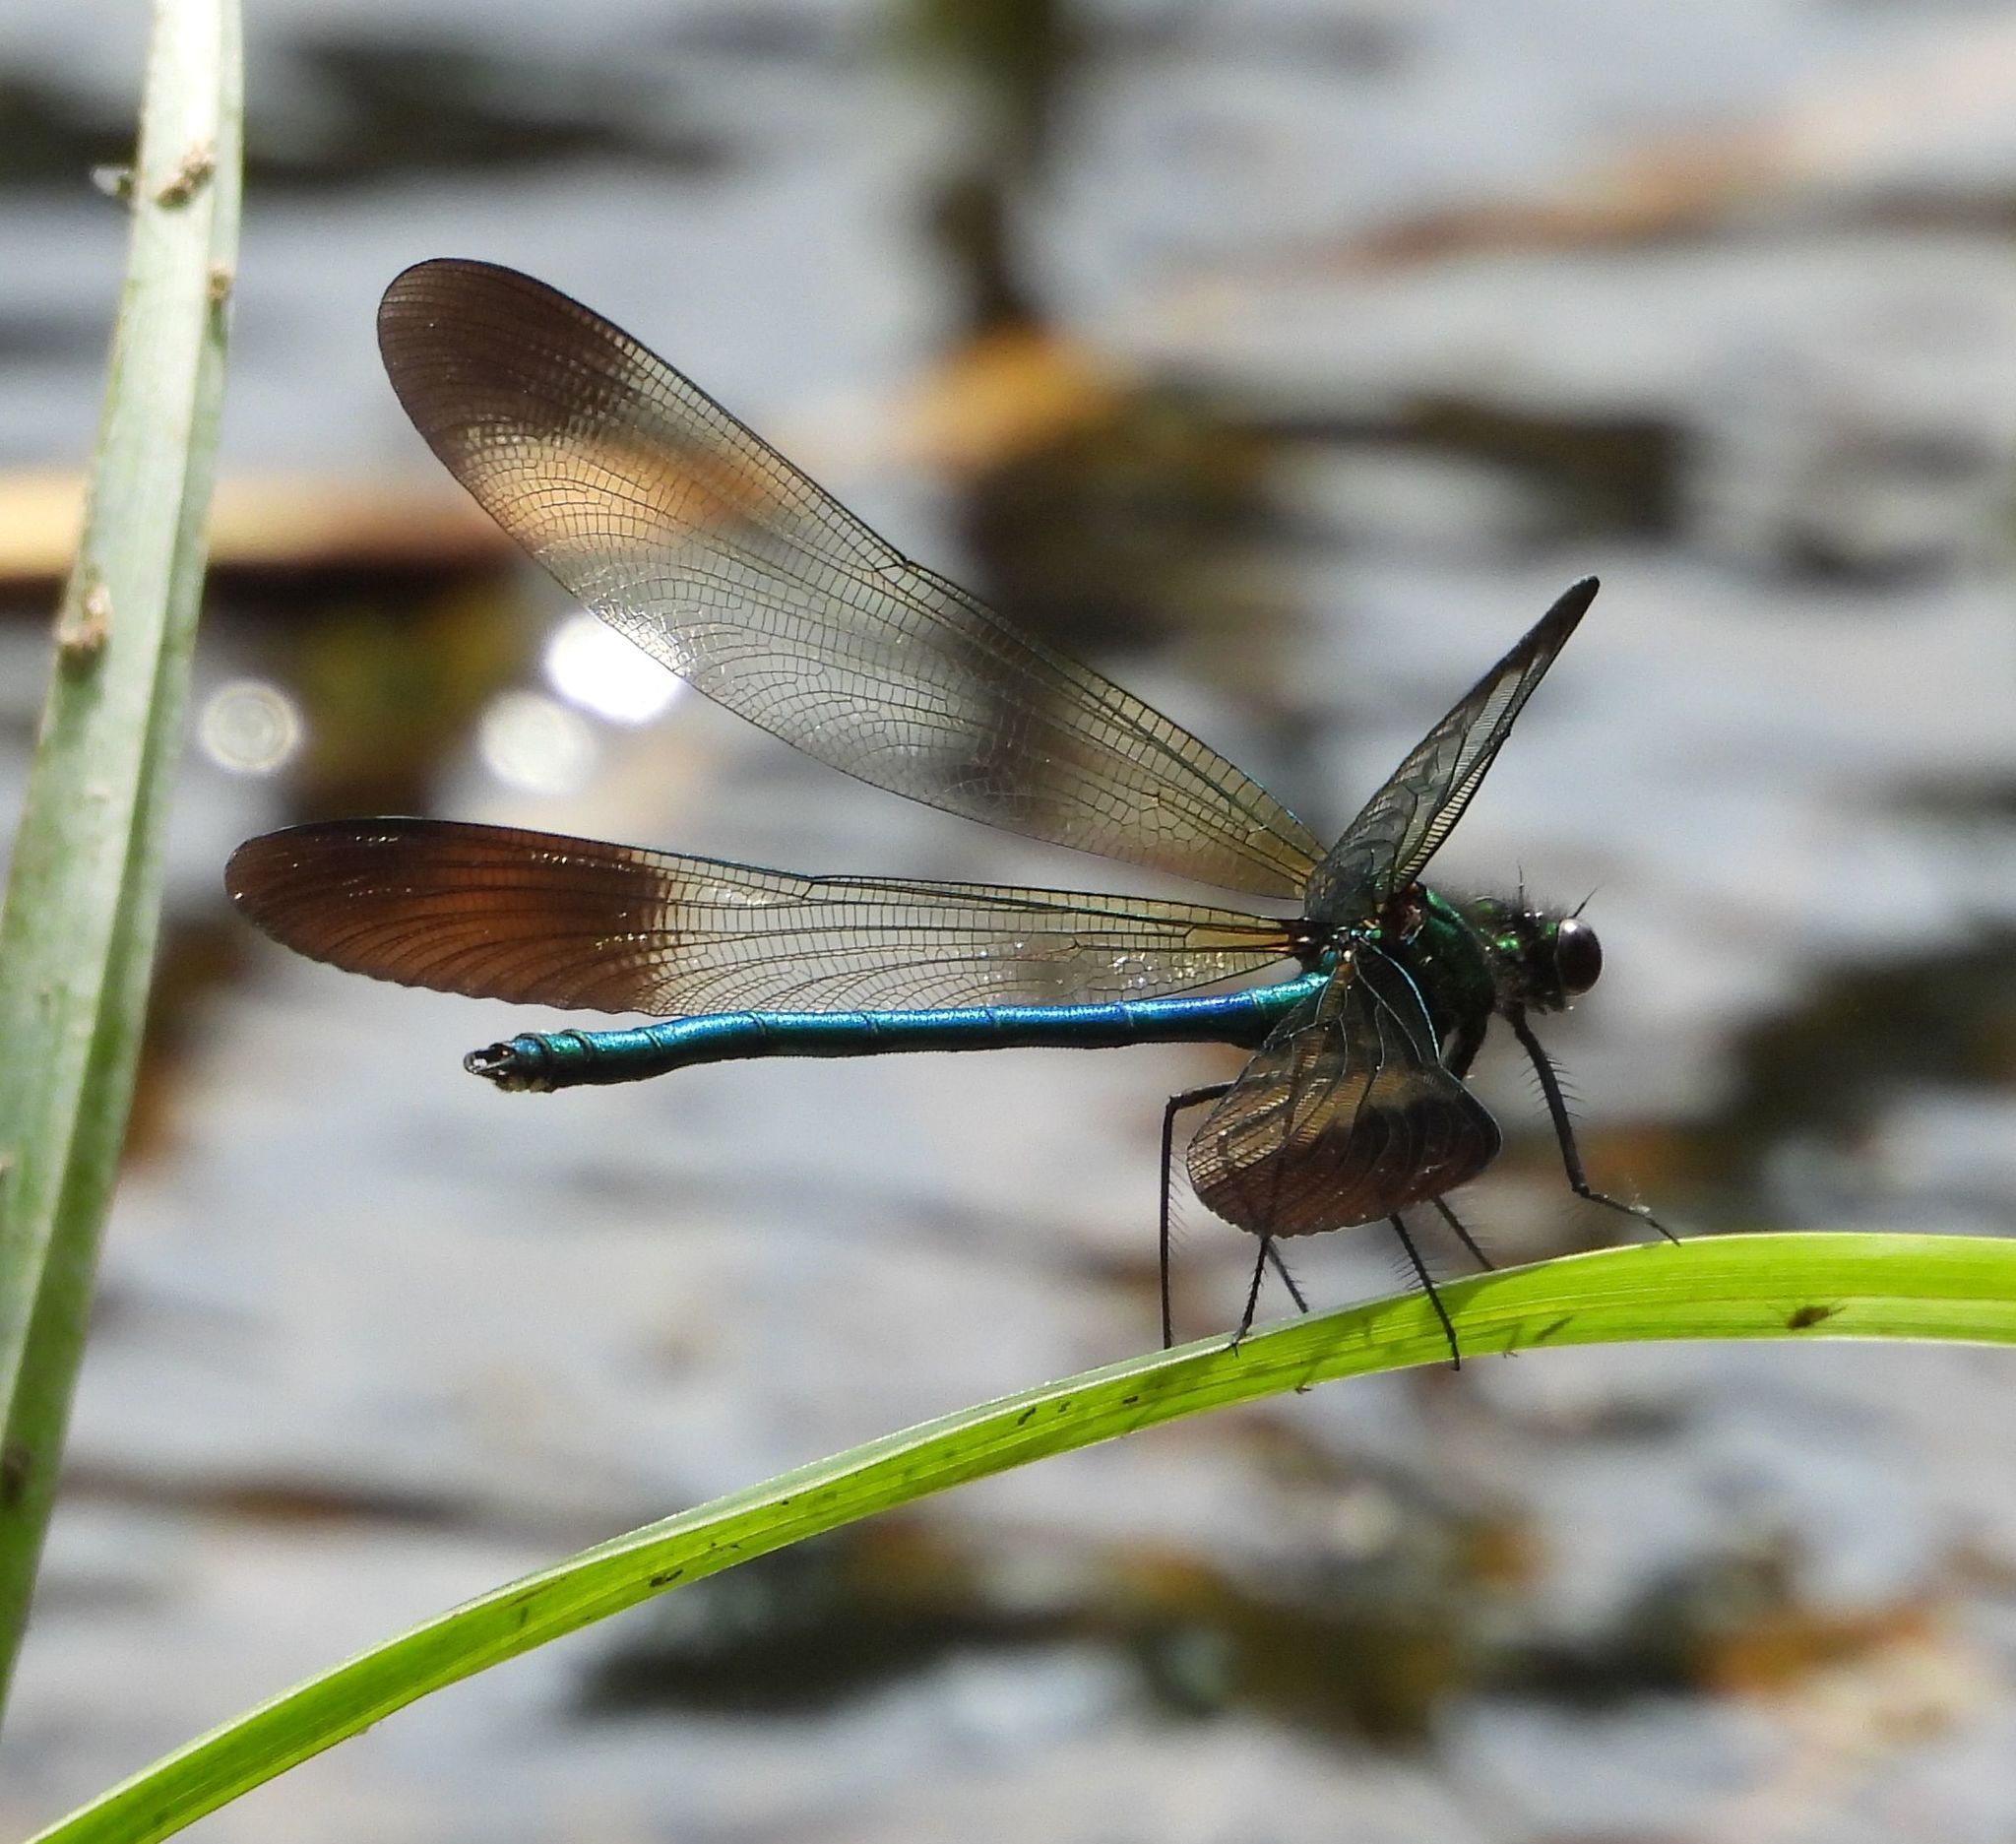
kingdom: Animalia
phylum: Arthropoda
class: Insecta
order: Odonata
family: Calopterygidae
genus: Calopteryx
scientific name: Calopteryx aequabilis
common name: River jewelwing
